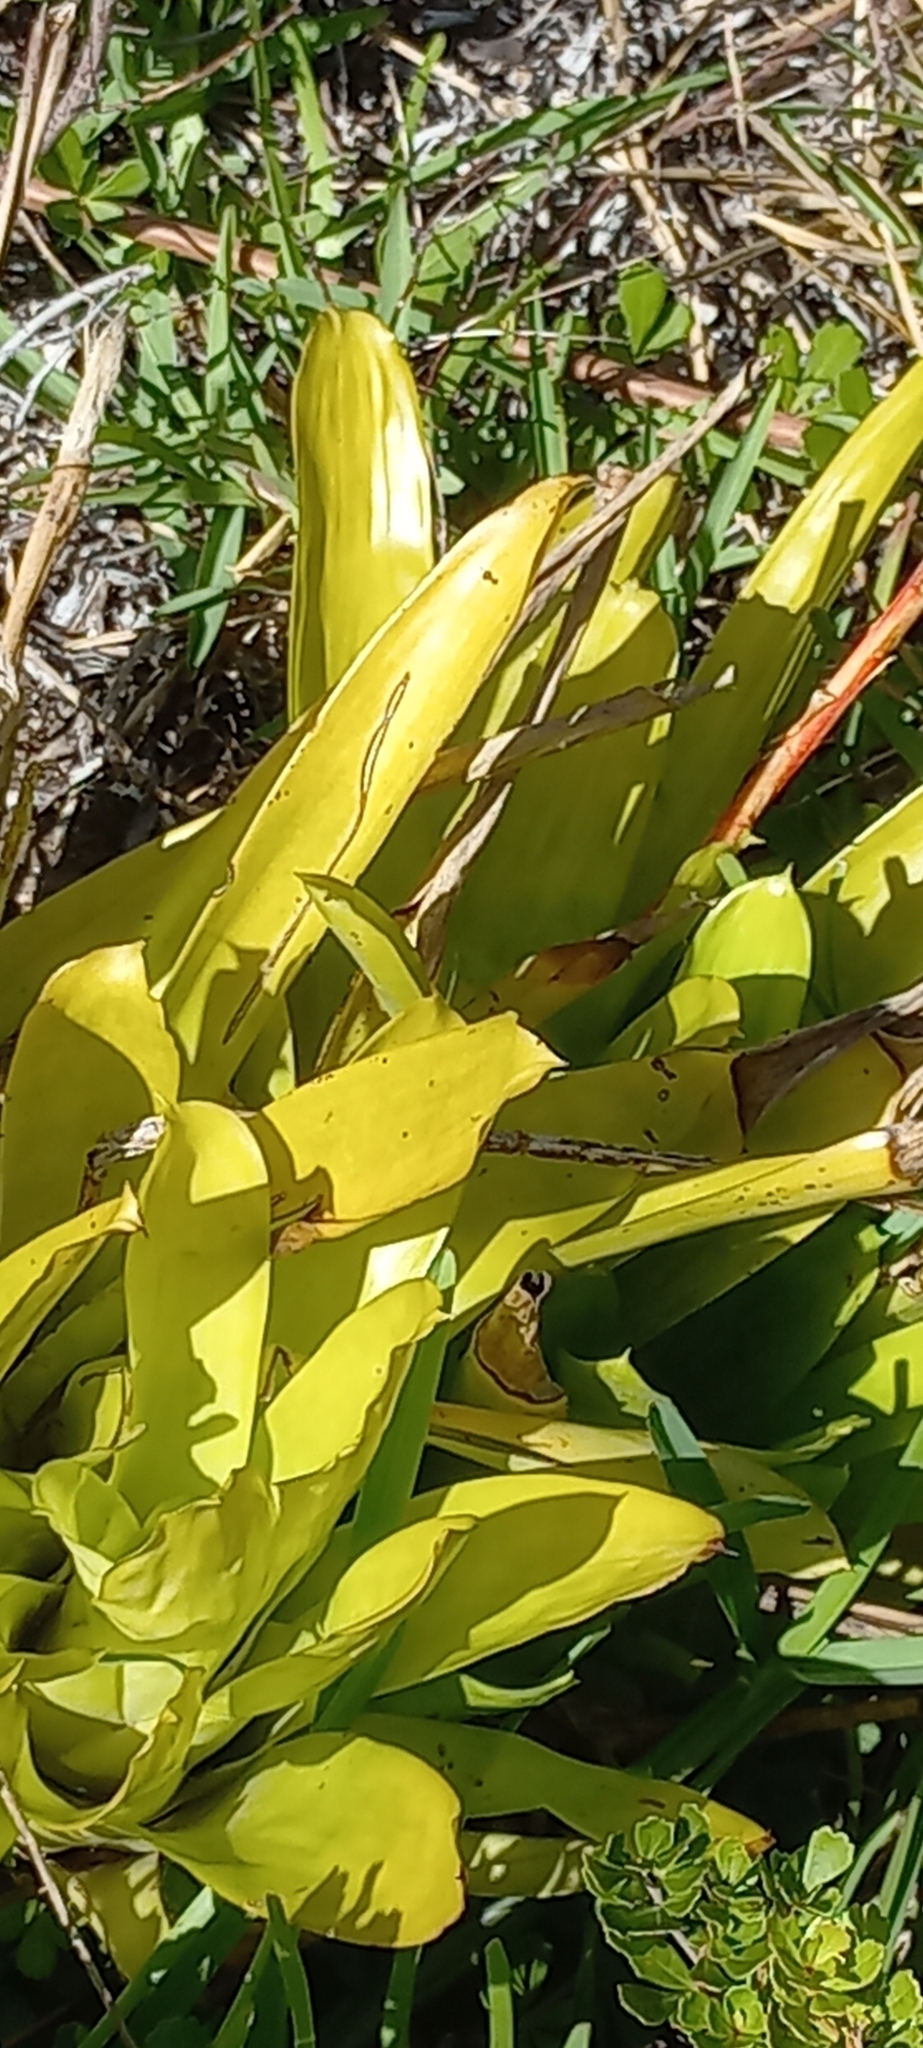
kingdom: Plantae
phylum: Tracheophyta
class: Liliopsida
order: Poales
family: Bromeliaceae
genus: Aechmea
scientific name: Aechmea gamosepala
